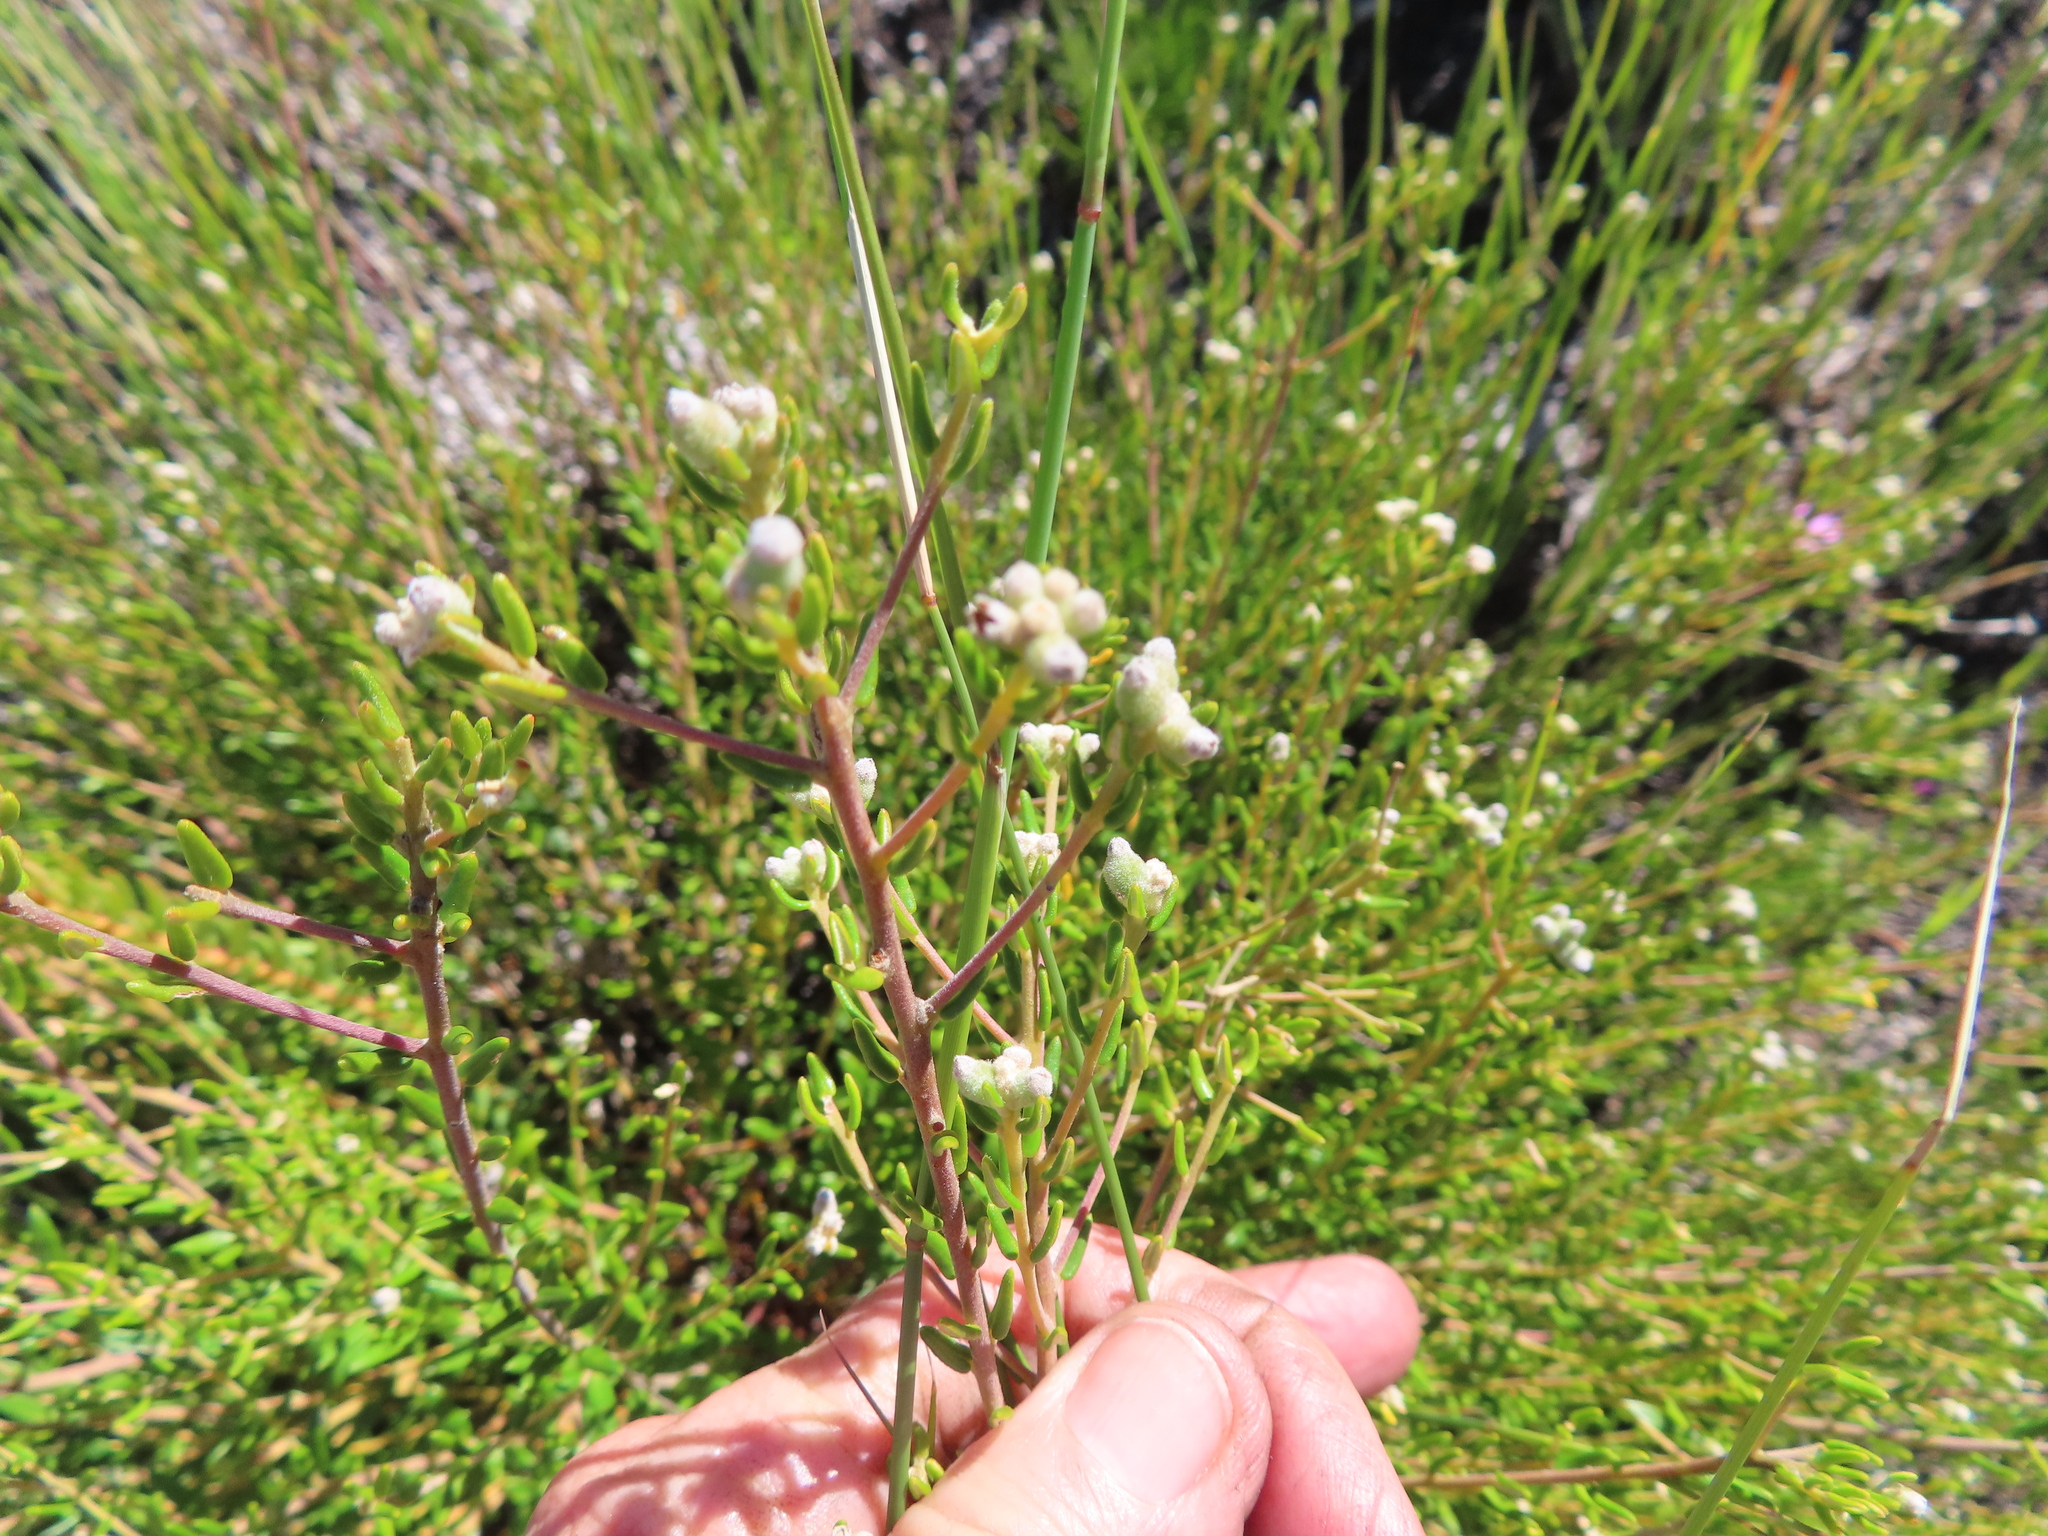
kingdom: Plantae
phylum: Tracheophyta
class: Magnoliopsida
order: Rosales
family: Rhamnaceae
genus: Phylica
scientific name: Phylica lasiocarpa
